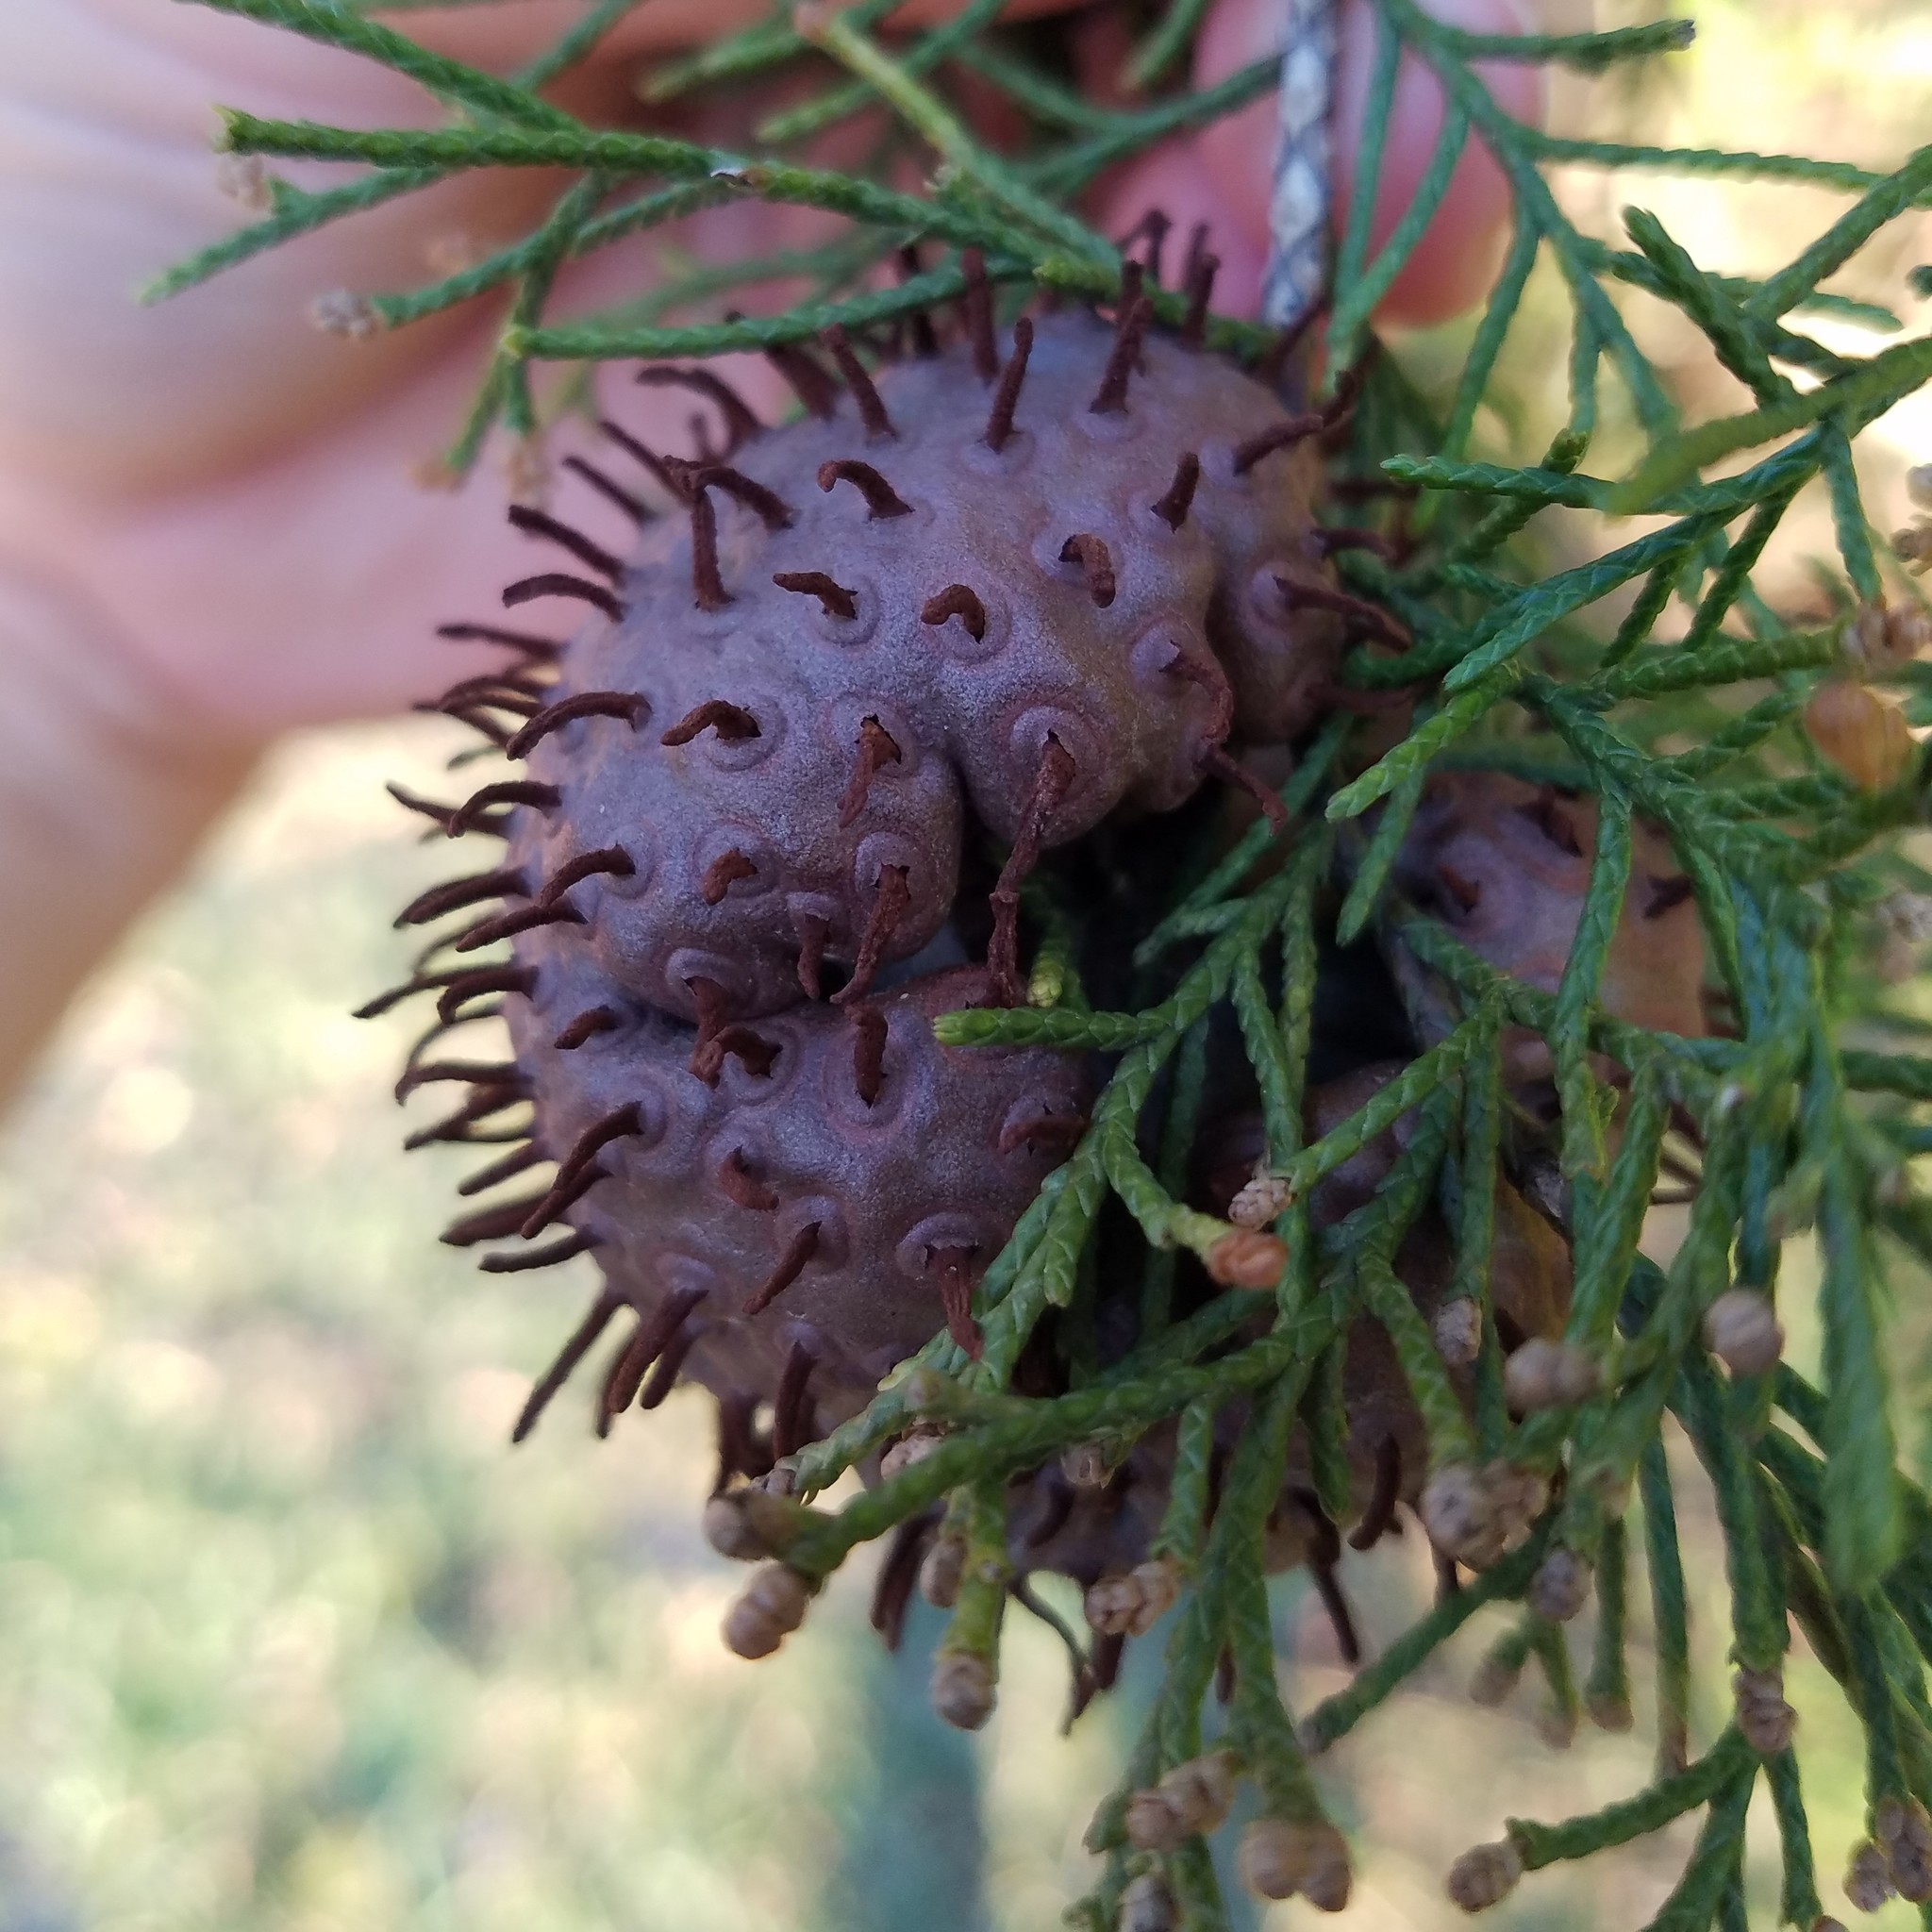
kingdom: Fungi
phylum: Basidiomycota
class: Pucciniomycetes
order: Pucciniales
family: Gymnosporangiaceae
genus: Gymnosporangium
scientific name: Gymnosporangium juniperi-virginianae
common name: Juniper-apple rust
